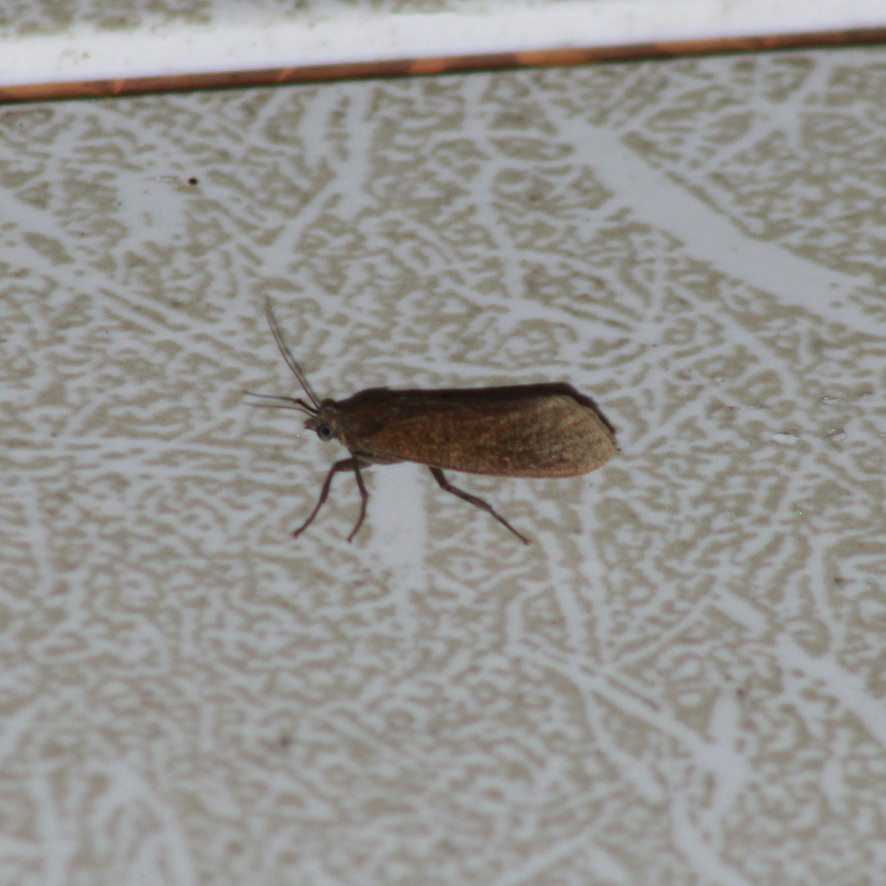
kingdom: Animalia
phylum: Arthropoda
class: Insecta
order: Lepidoptera
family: Erebidae
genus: Virbia
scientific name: Virbia medarda
